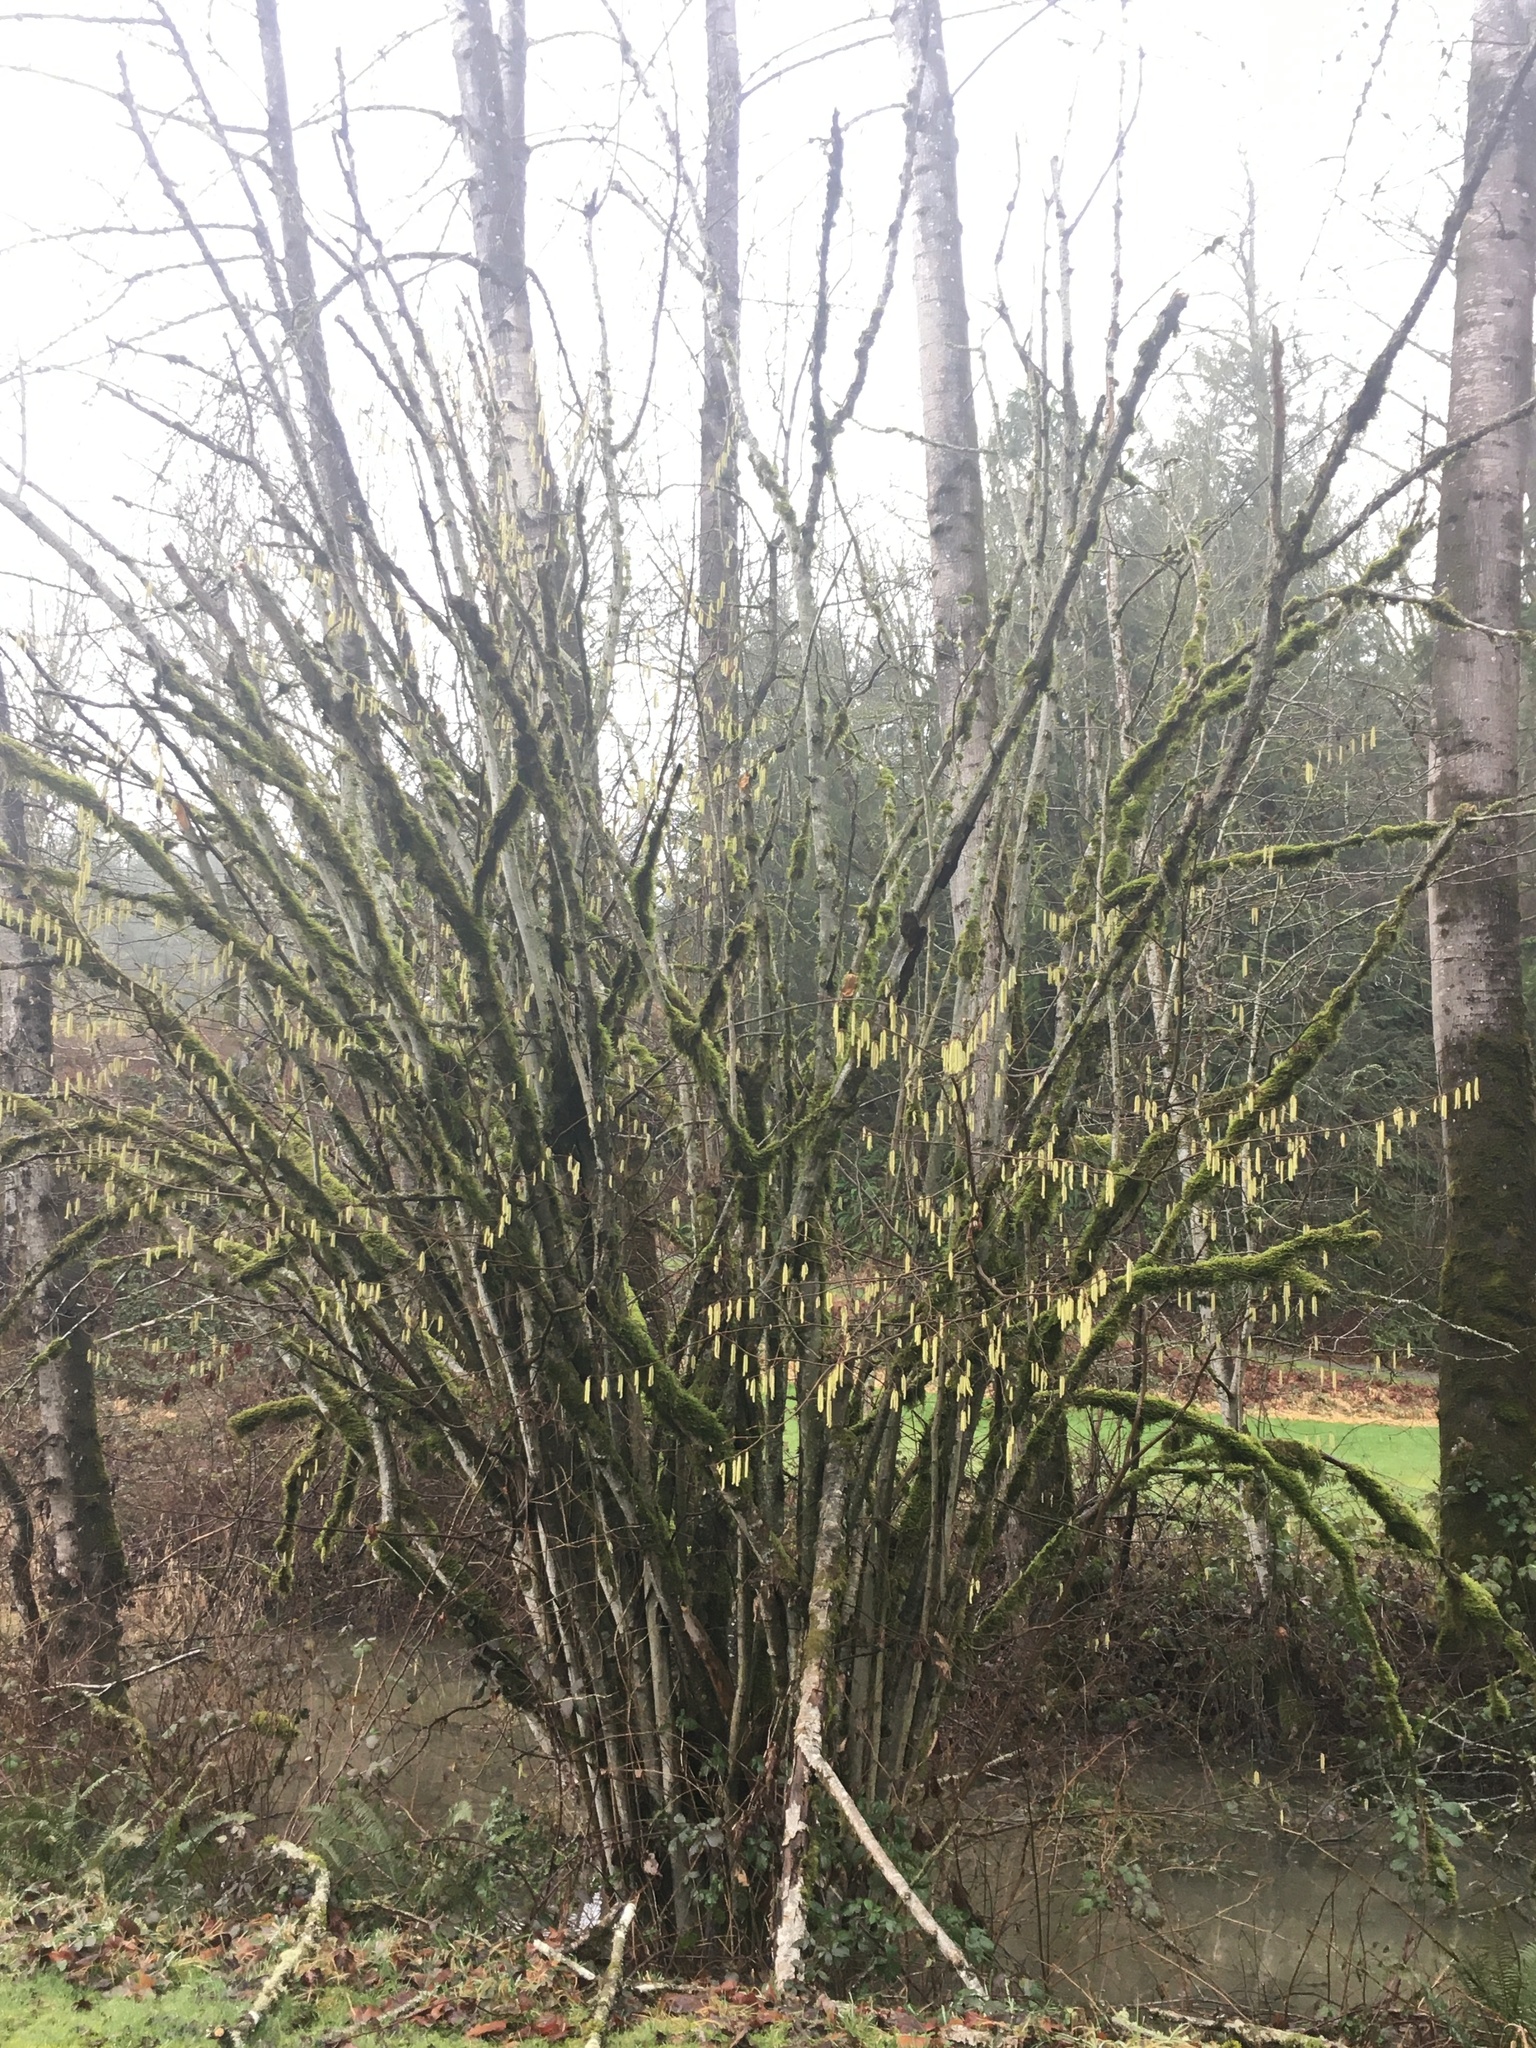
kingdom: Plantae
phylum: Tracheophyta
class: Magnoliopsida
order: Fagales
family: Betulaceae
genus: Corylus
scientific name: Corylus cornuta
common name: Beaked hazel
